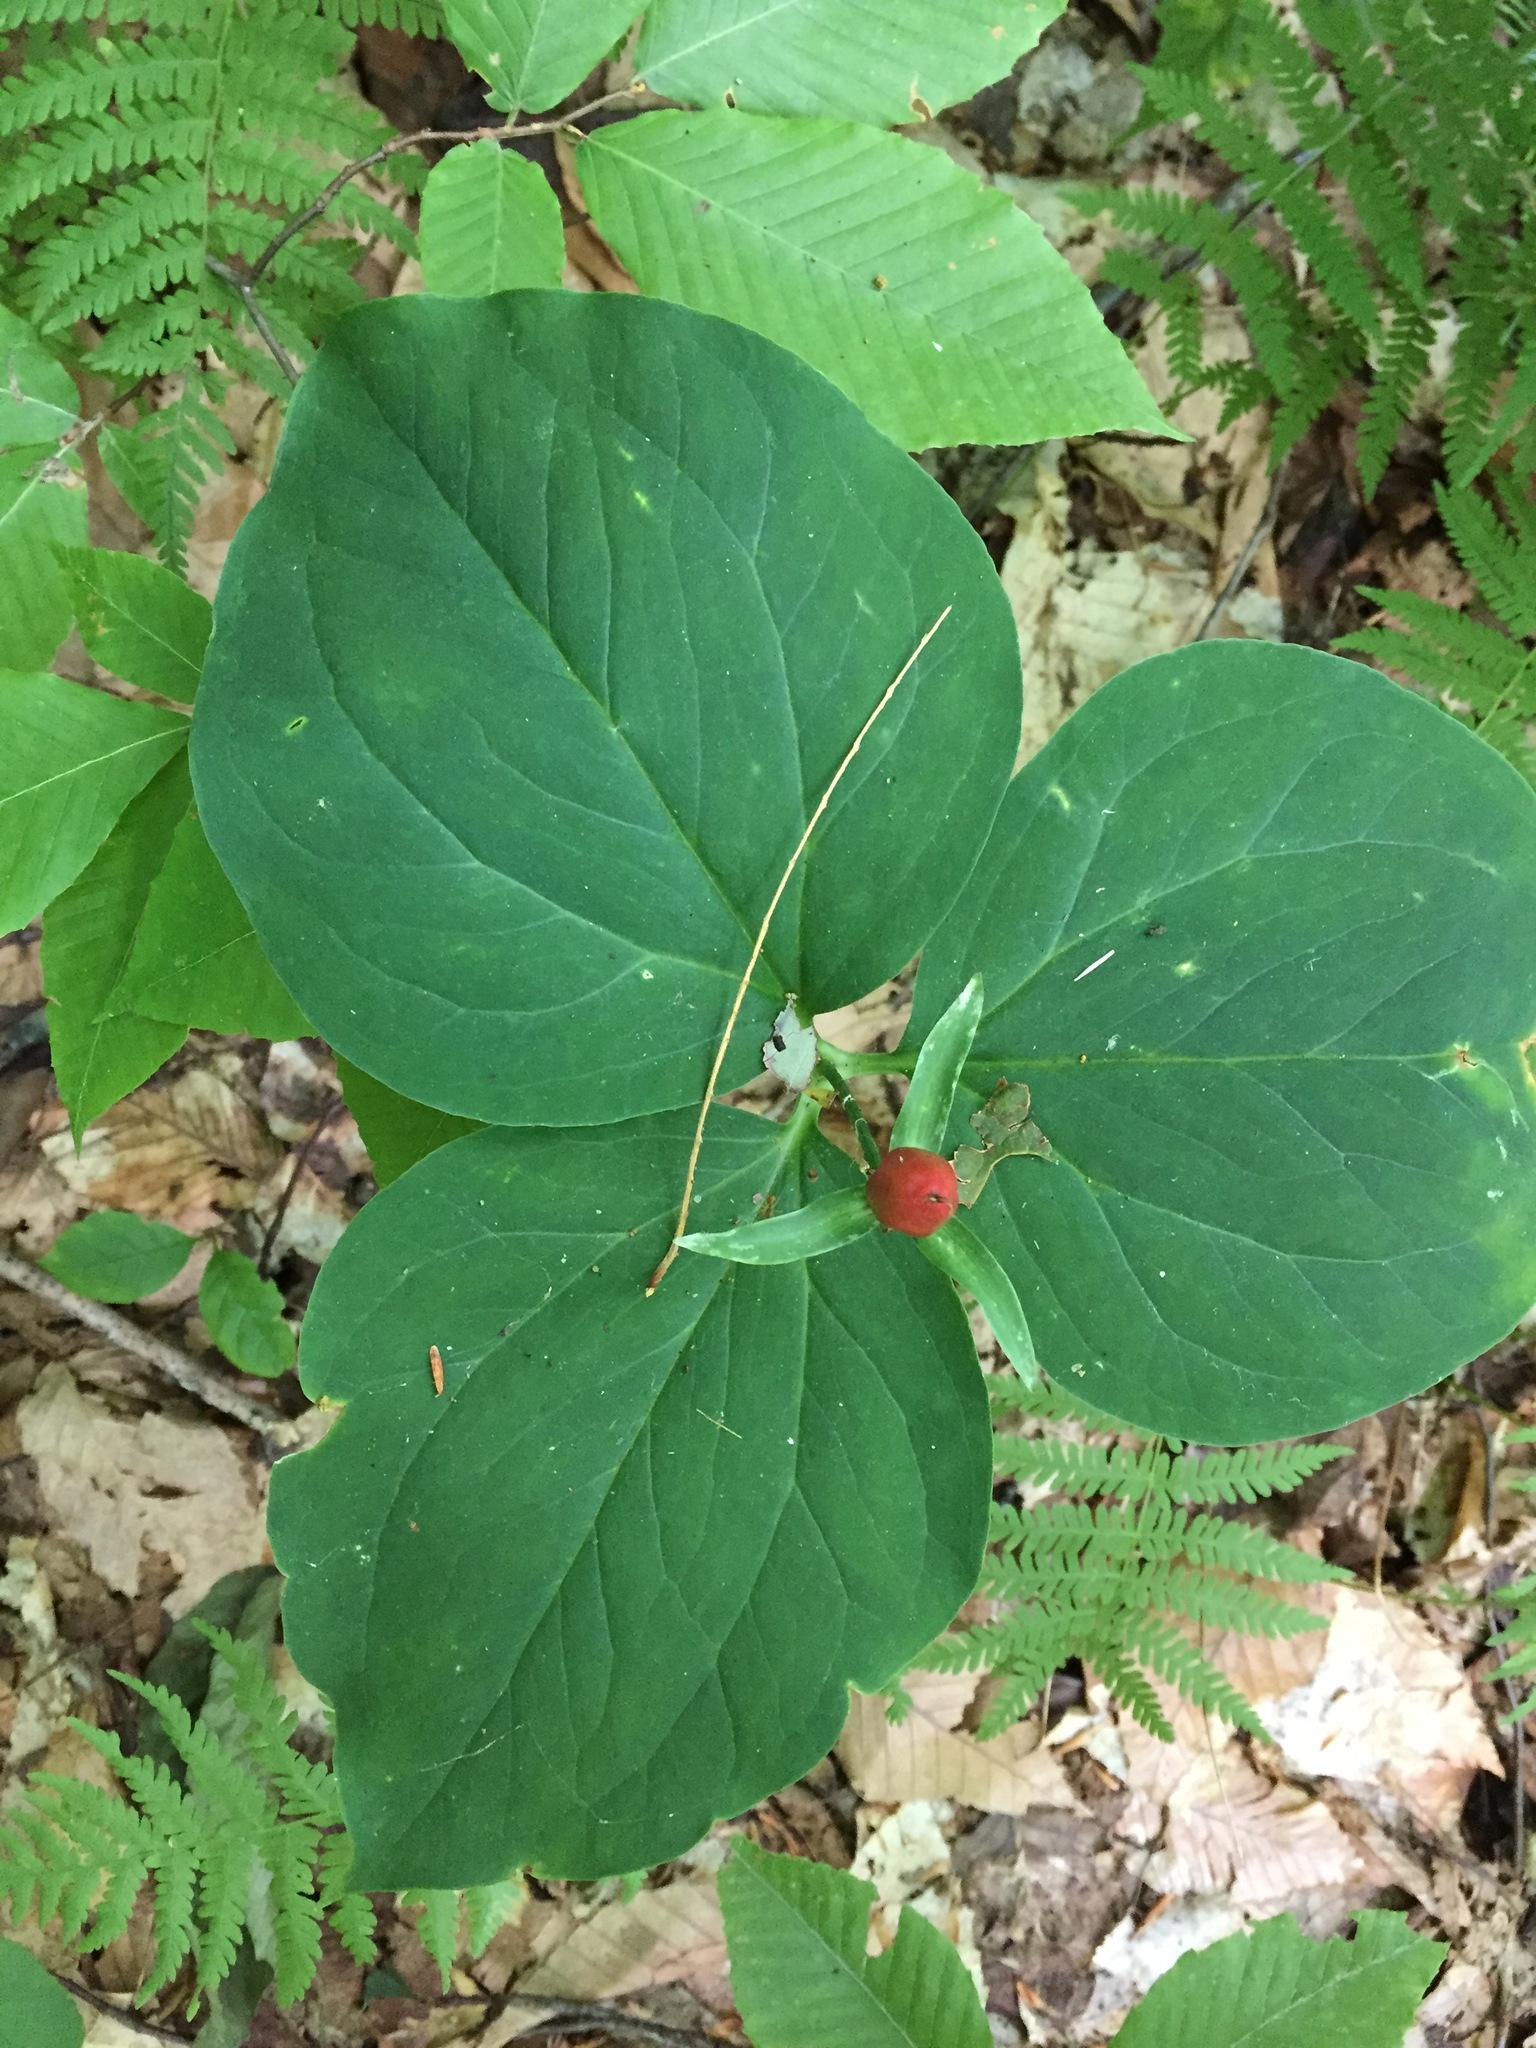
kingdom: Plantae
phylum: Tracheophyta
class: Liliopsida
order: Liliales
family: Melanthiaceae
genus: Trillium
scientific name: Trillium undulatum
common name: Paint trillium
